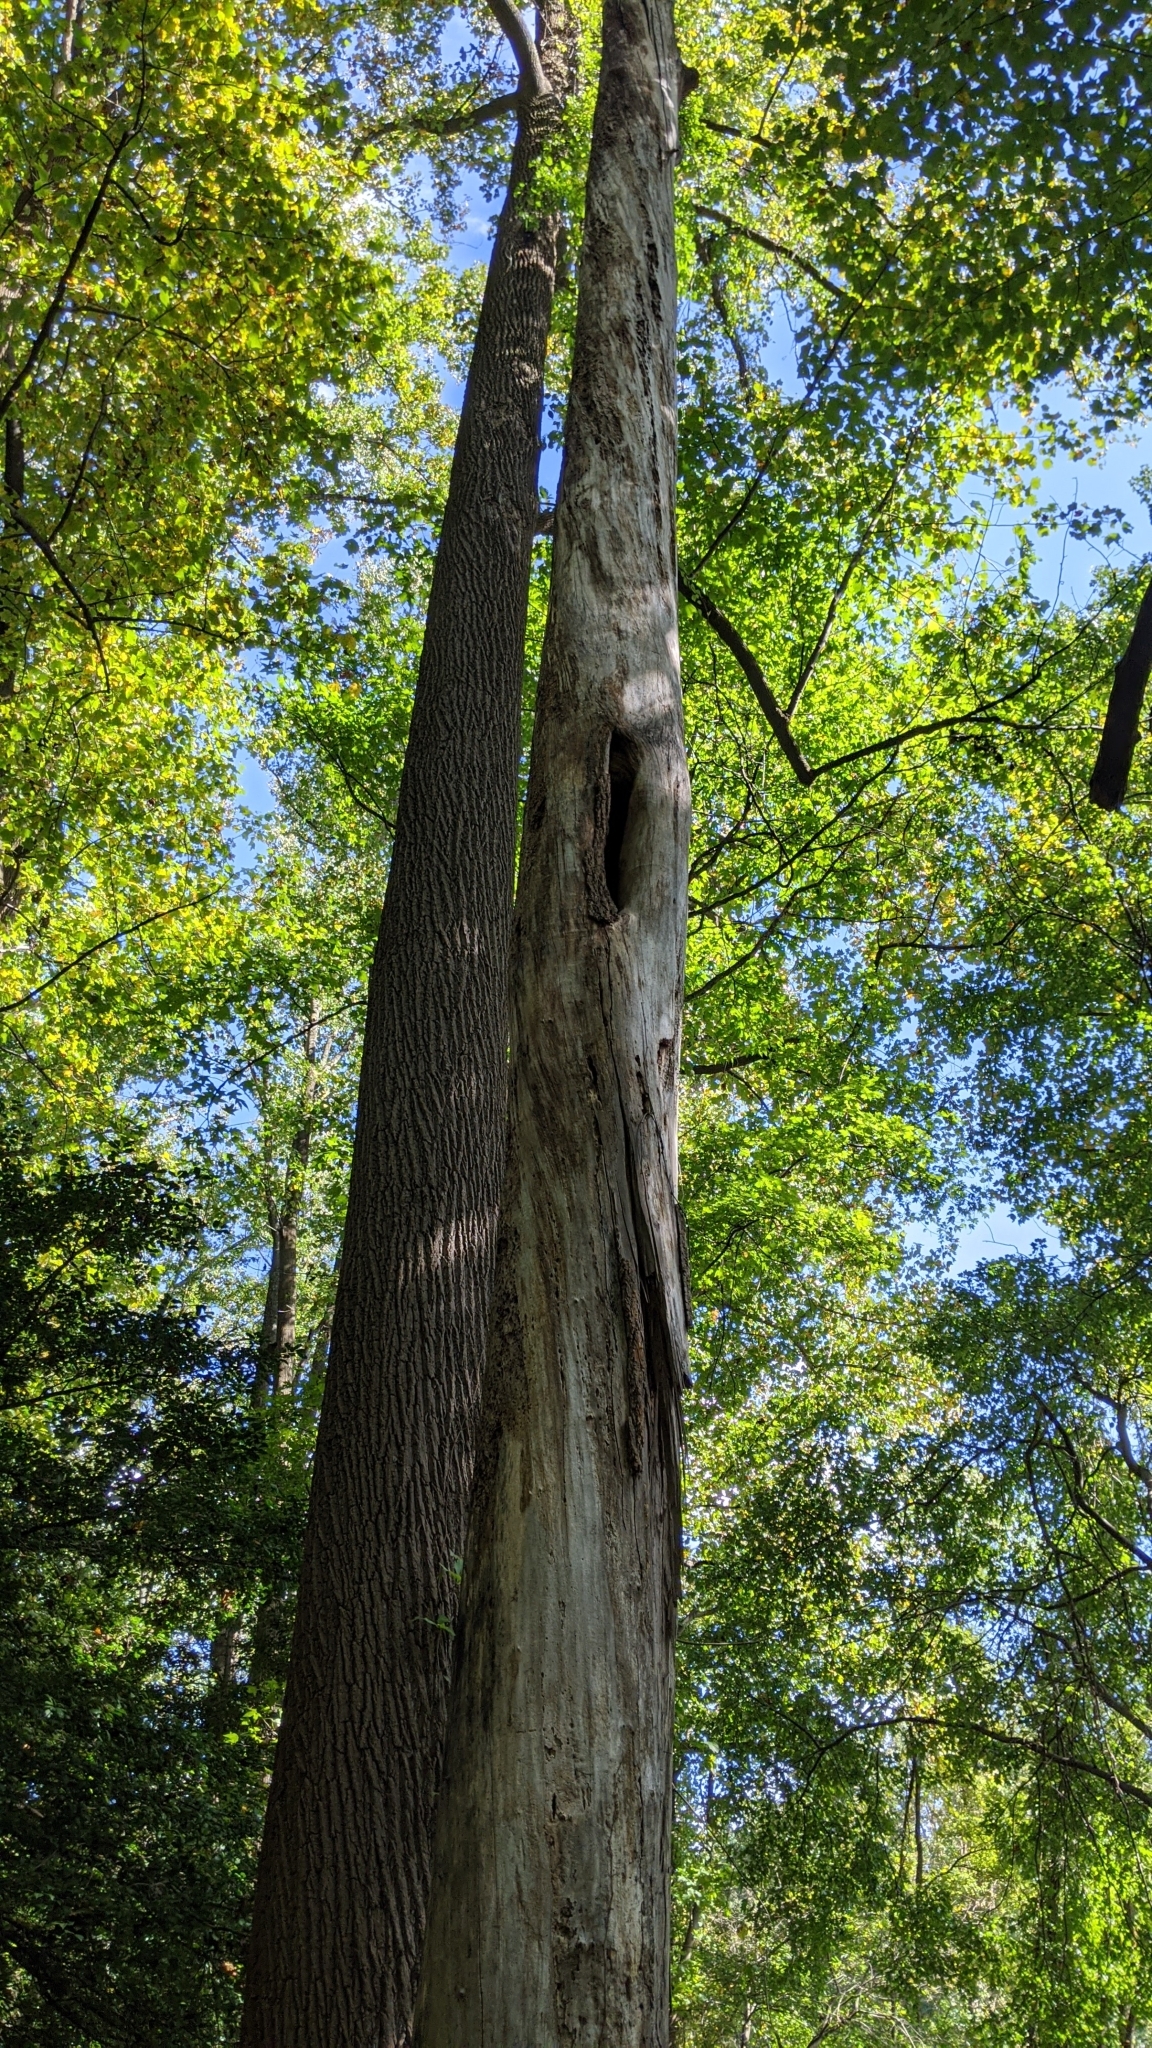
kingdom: Plantae
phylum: Tracheophyta
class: Magnoliopsida
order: Magnoliales
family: Magnoliaceae
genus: Liriodendron
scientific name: Liriodendron tulipifera
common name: Tulip tree
